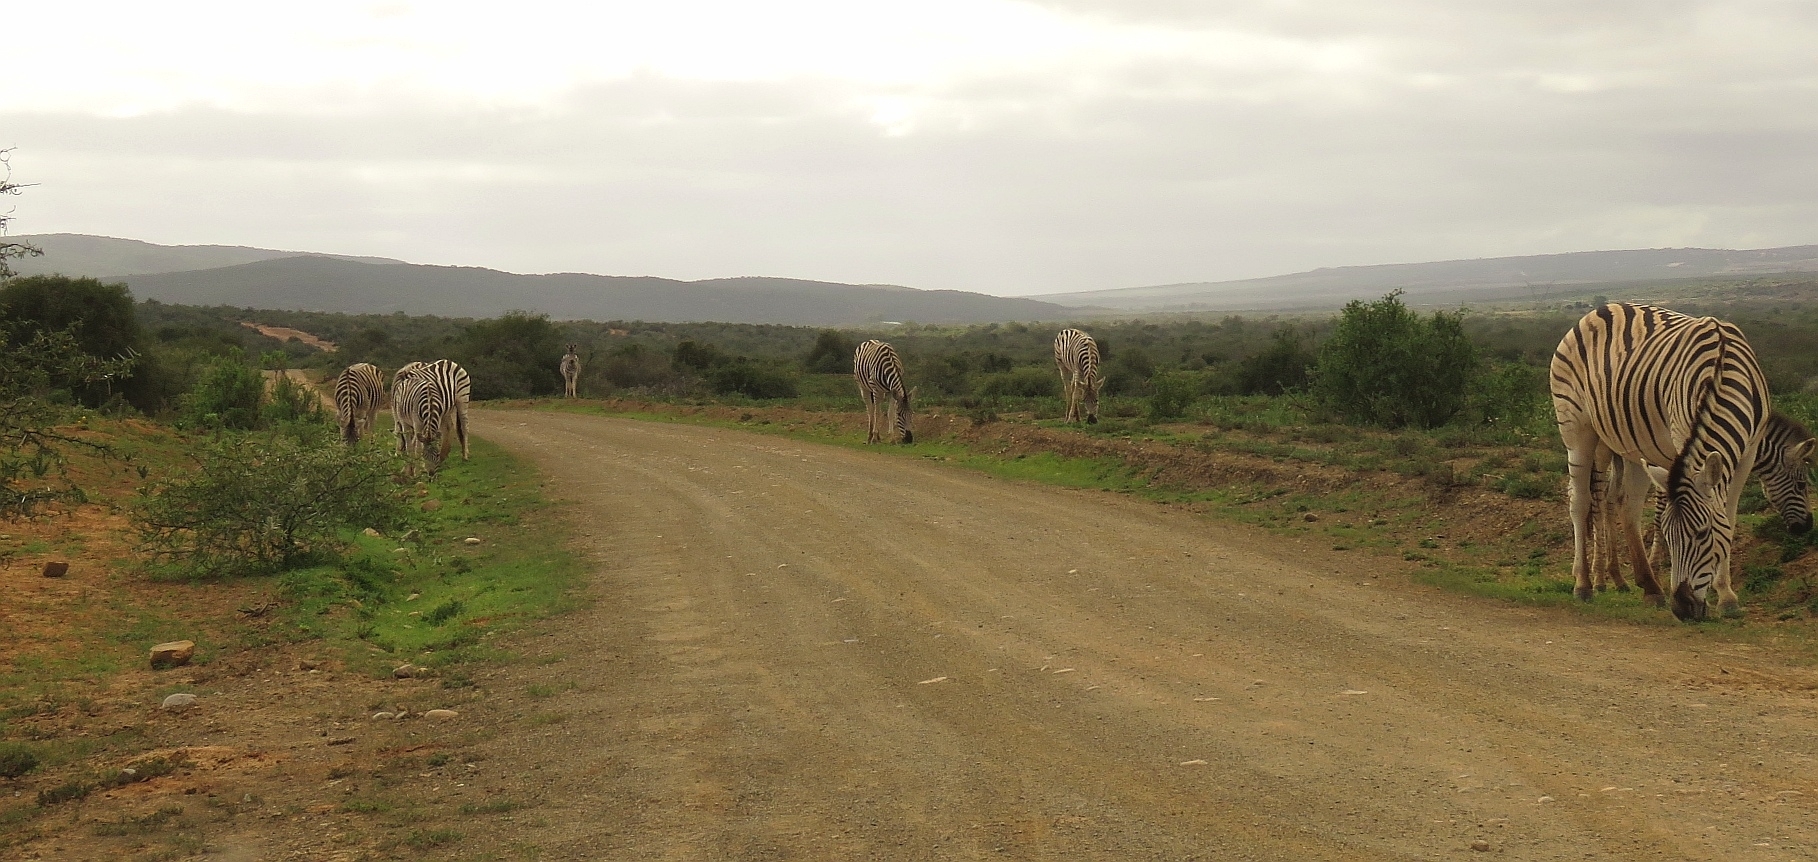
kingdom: Animalia
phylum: Chordata
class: Mammalia
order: Perissodactyla
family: Equidae
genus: Equus
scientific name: Equus quagga
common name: Plains zebra
